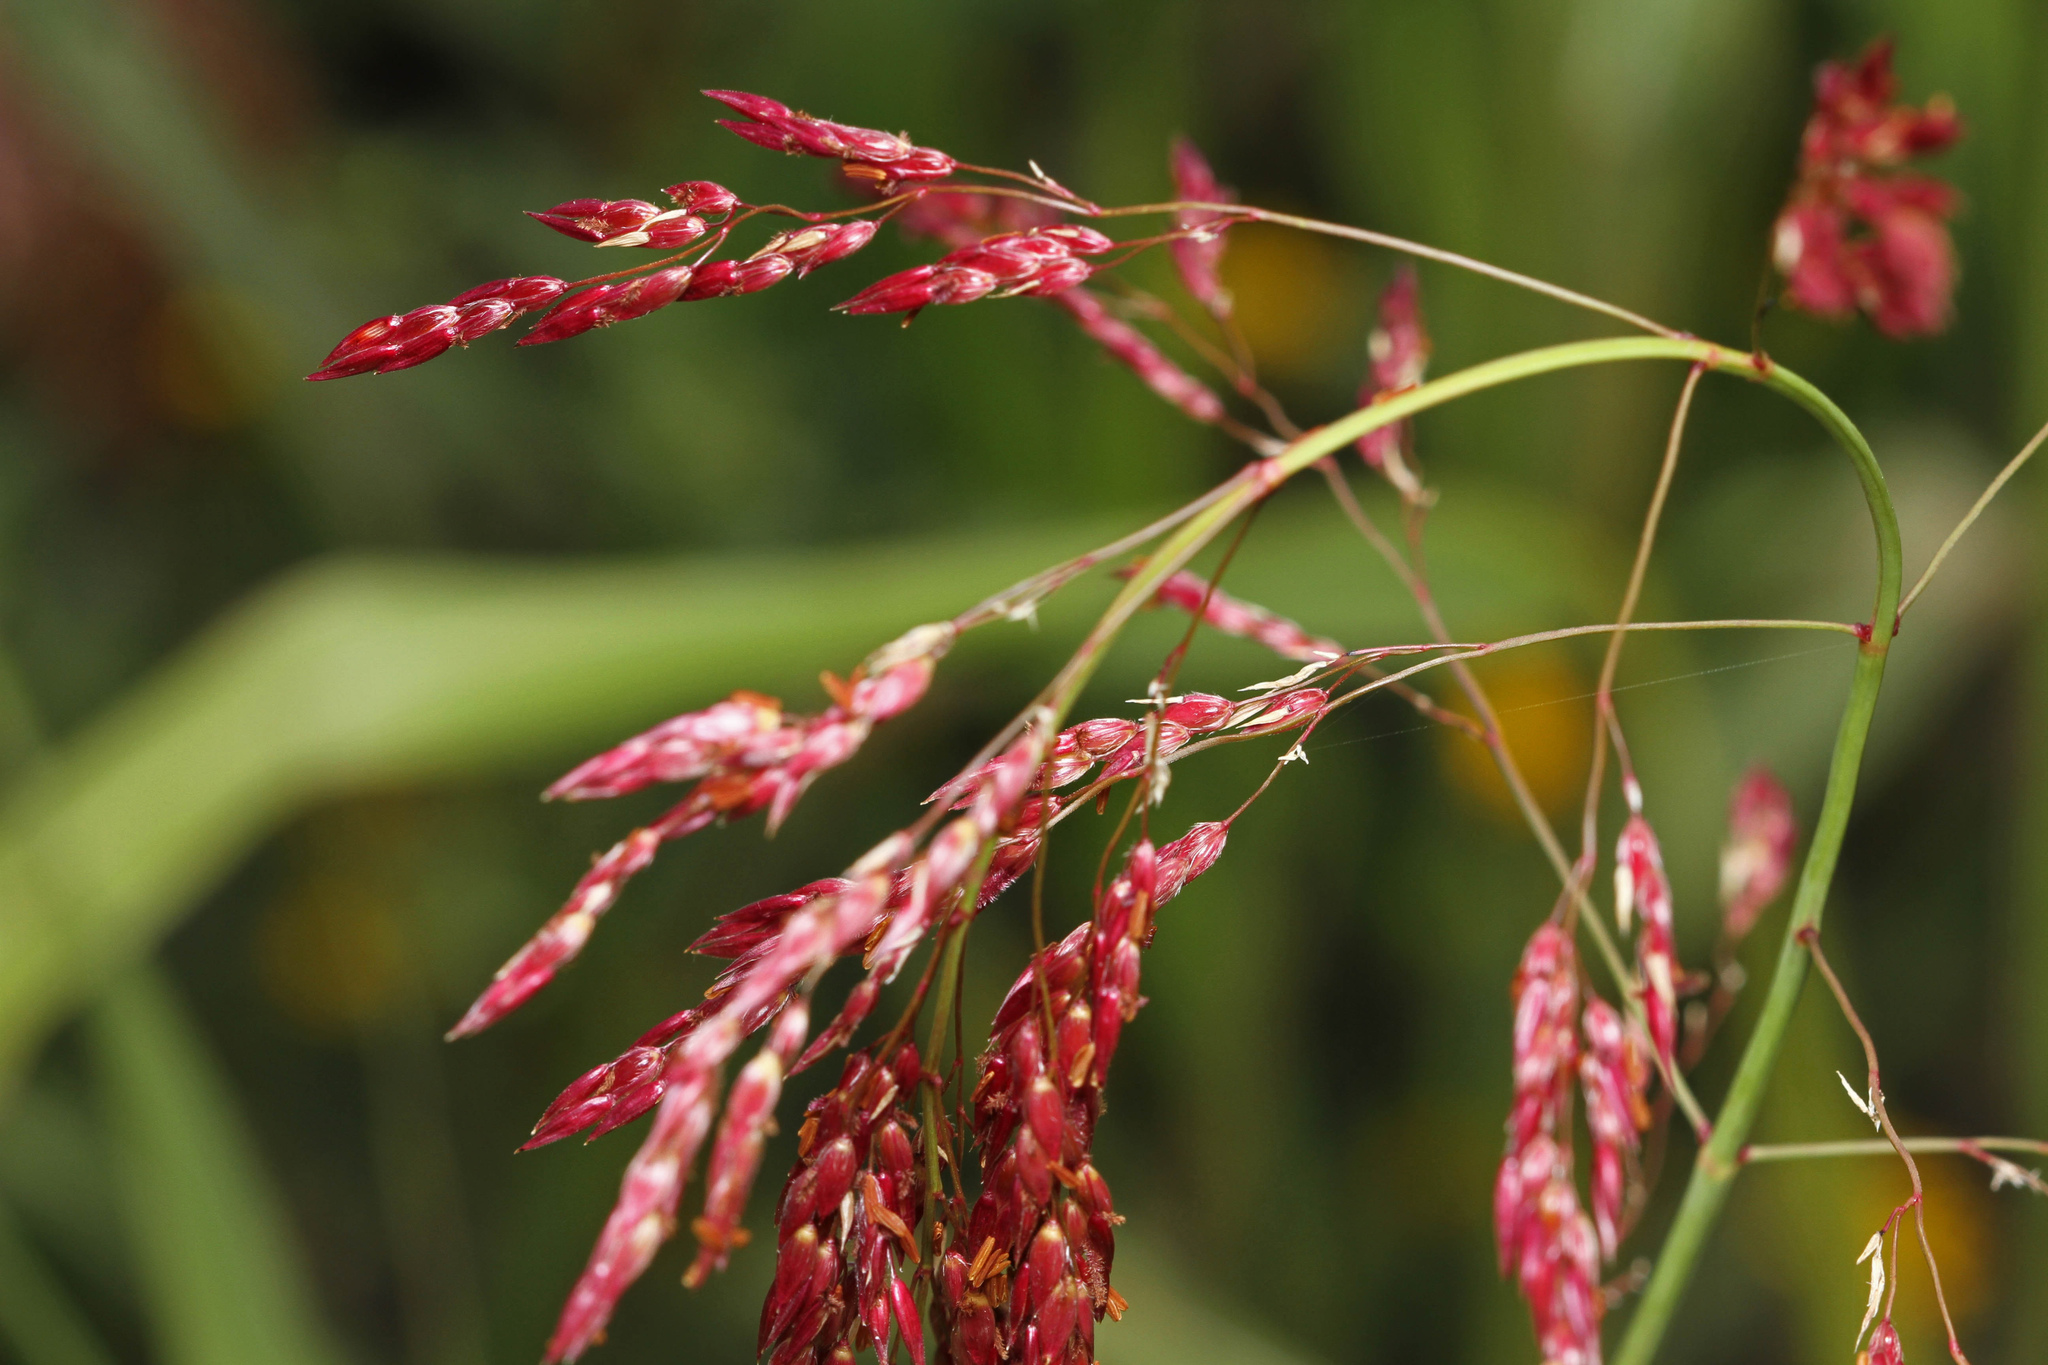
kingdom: Plantae
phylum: Tracheophyta
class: Liliopsida
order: Poales
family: Poaceae
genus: Sorghum
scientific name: Sorghum halepense
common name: Johnson-grass
